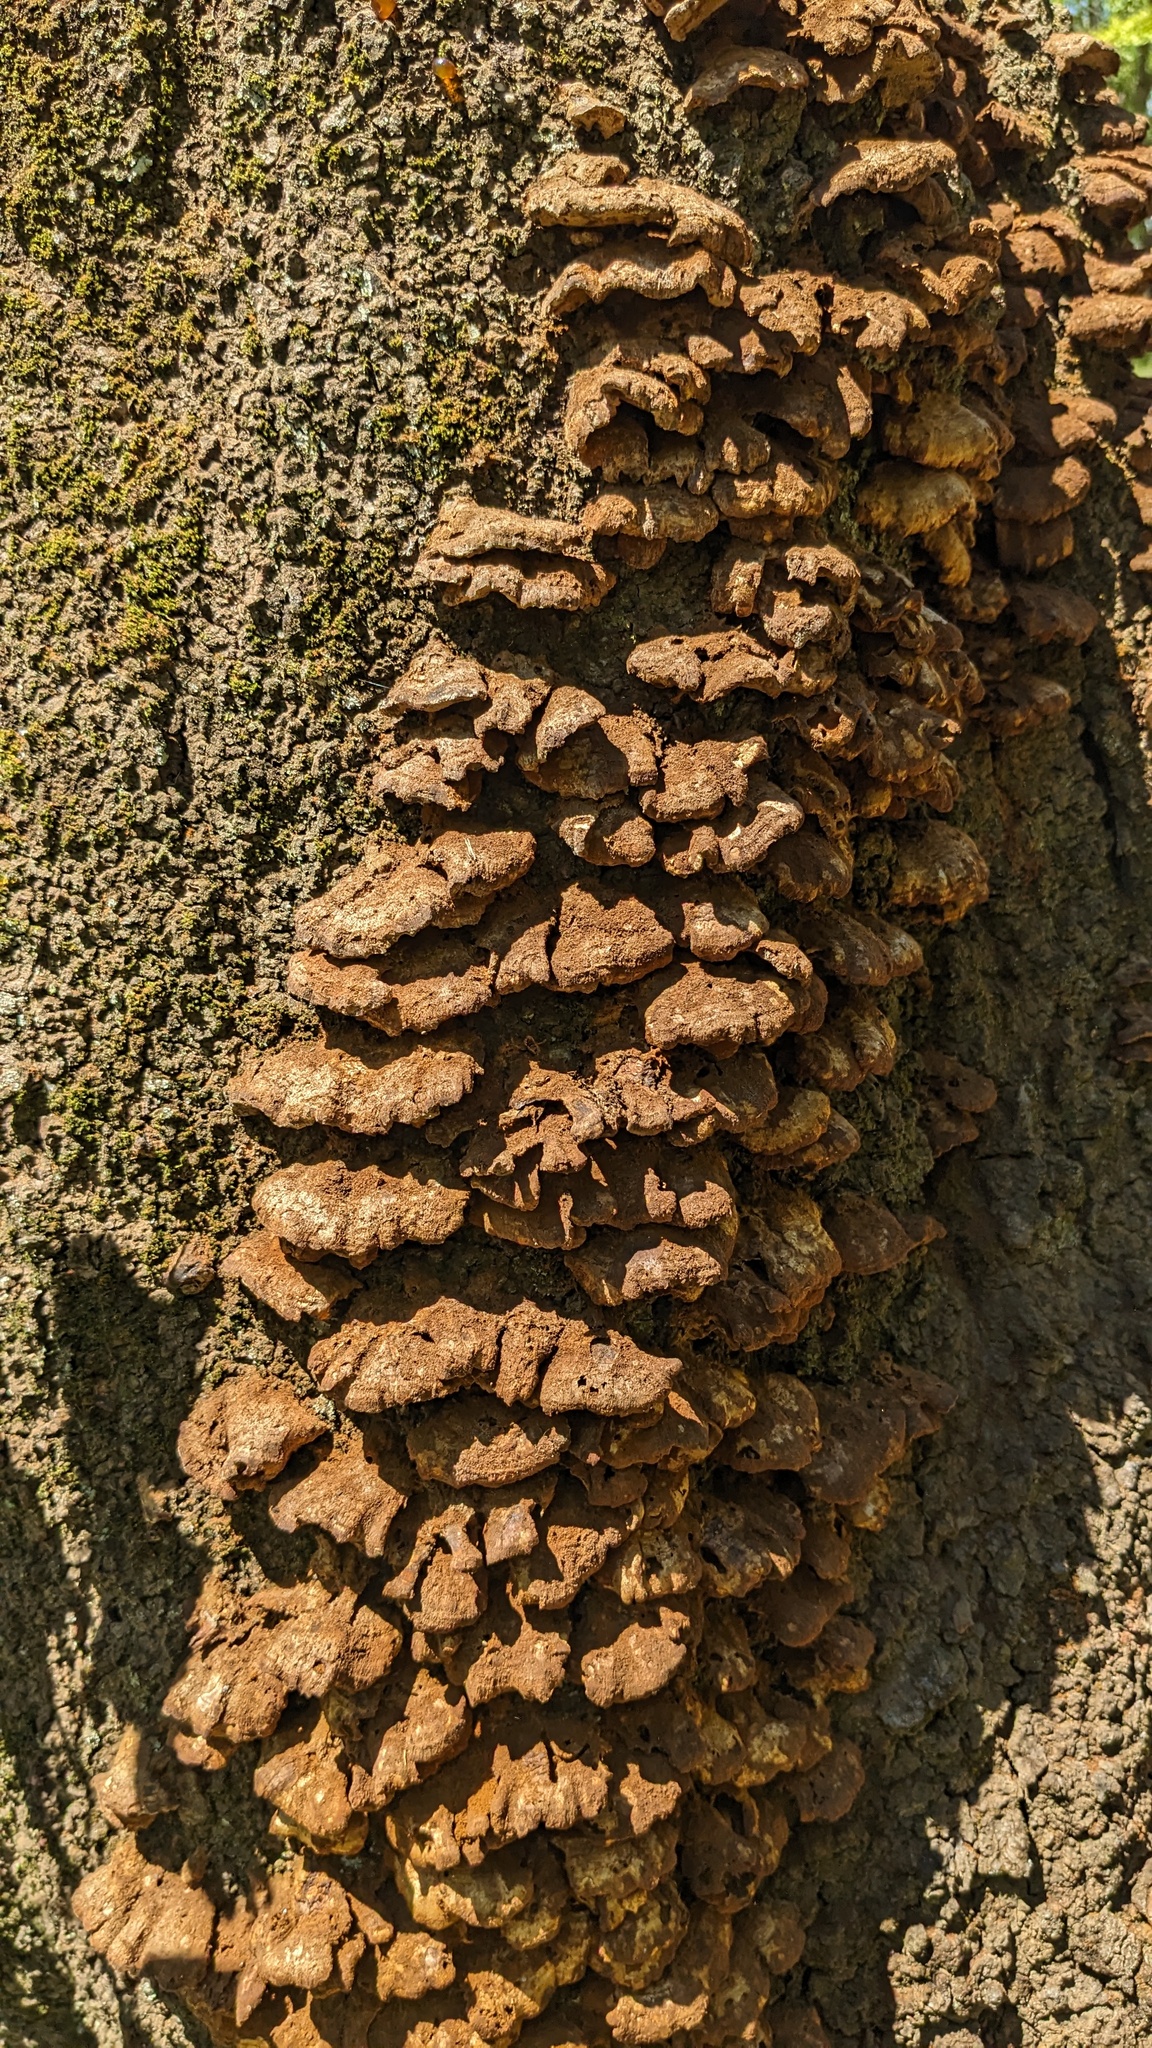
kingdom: Fungi
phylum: Basidiomycota
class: Agaricomycetes
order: Hymenochaetales
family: Hymenochaetaceae
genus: Inocutis
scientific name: Inocutis mikadoi
